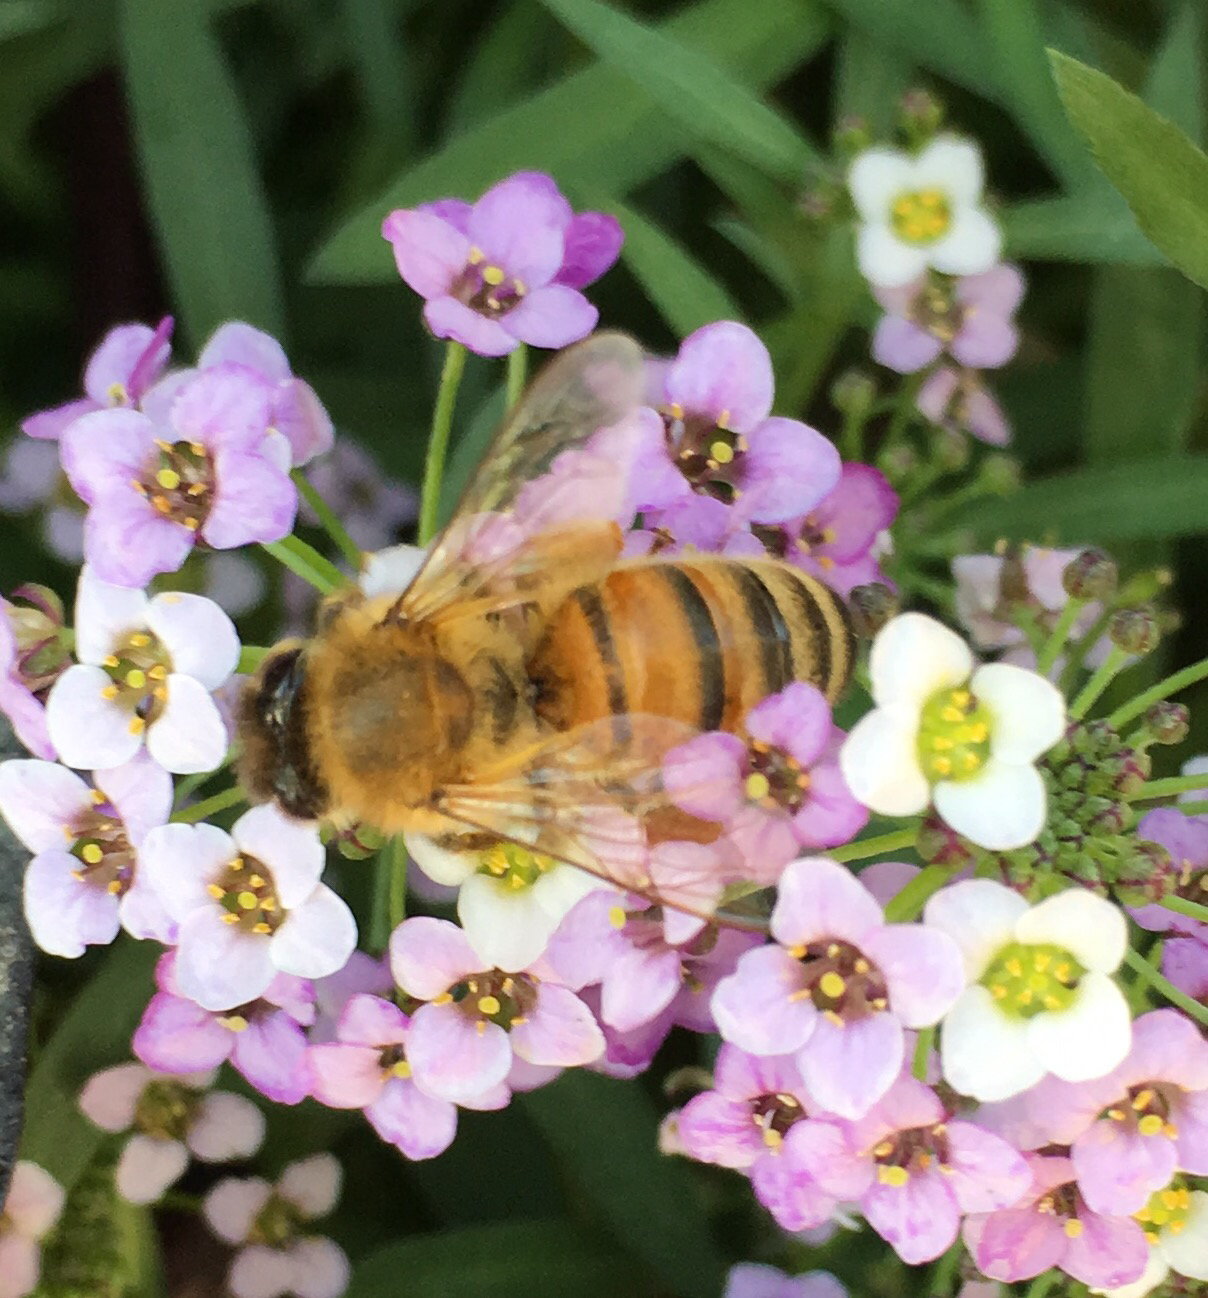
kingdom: Animalia
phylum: Arthropoda
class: Insecta
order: Hymenoptera
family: Apidae
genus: Apis
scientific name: Apis mellifera
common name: Honey bee
